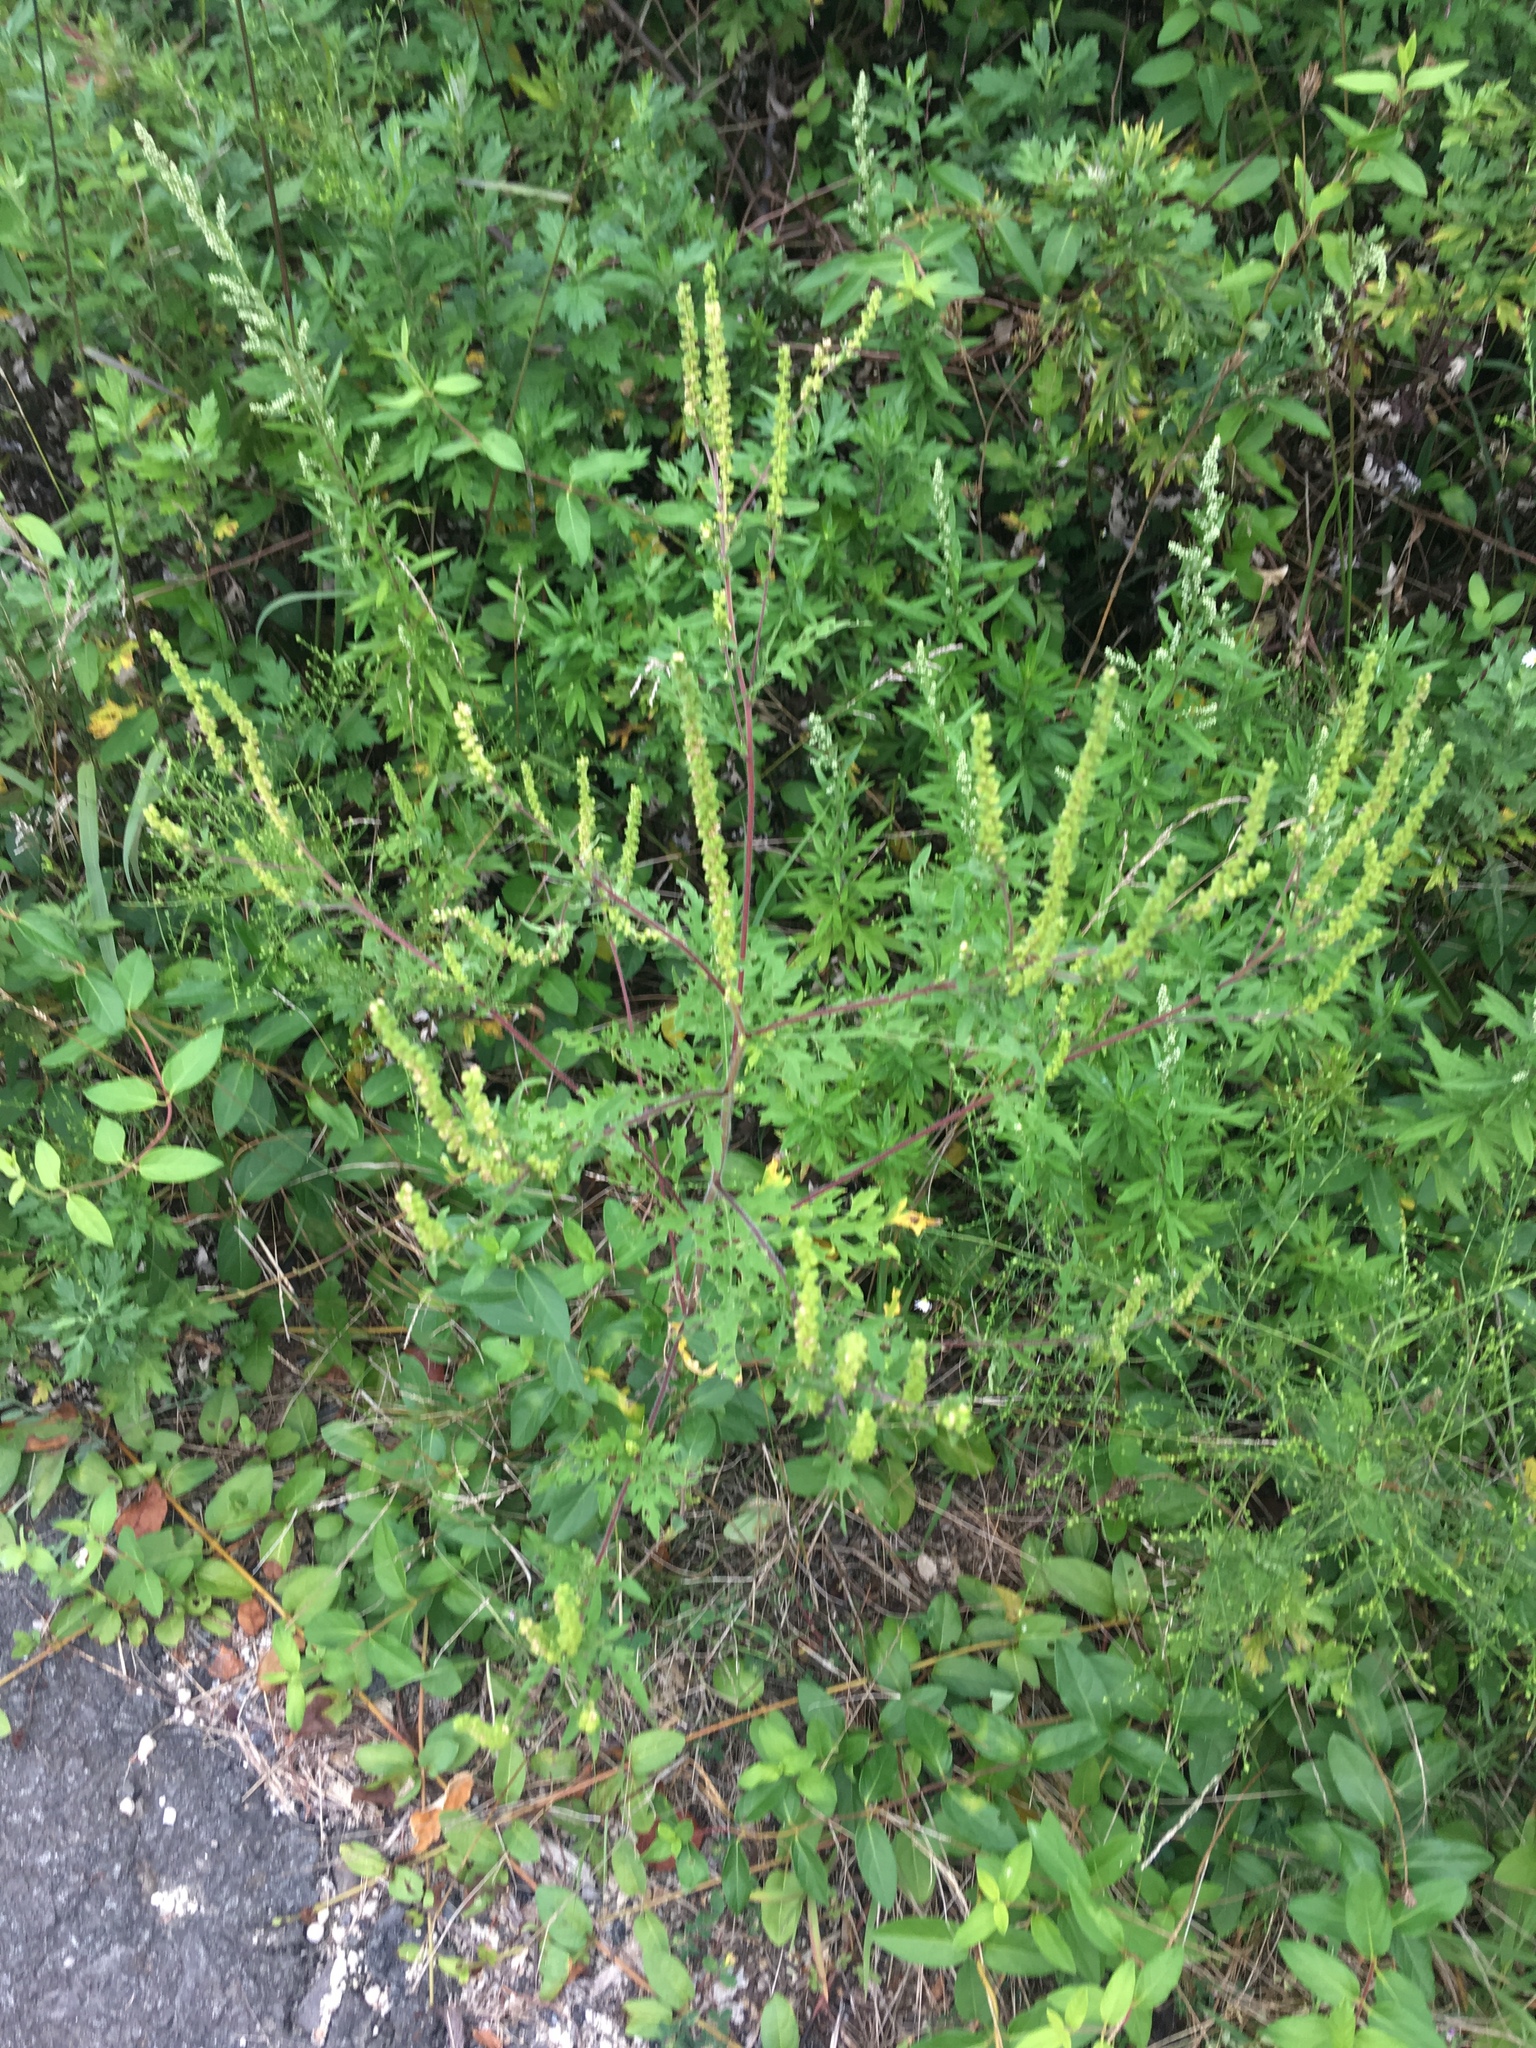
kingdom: Plantae
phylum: Tracheophyta
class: Magnoliopsida
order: Asterales
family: Asteraceae
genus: Ambrosia
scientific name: Ambrosia artemisiifolia
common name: Annual ragweed
